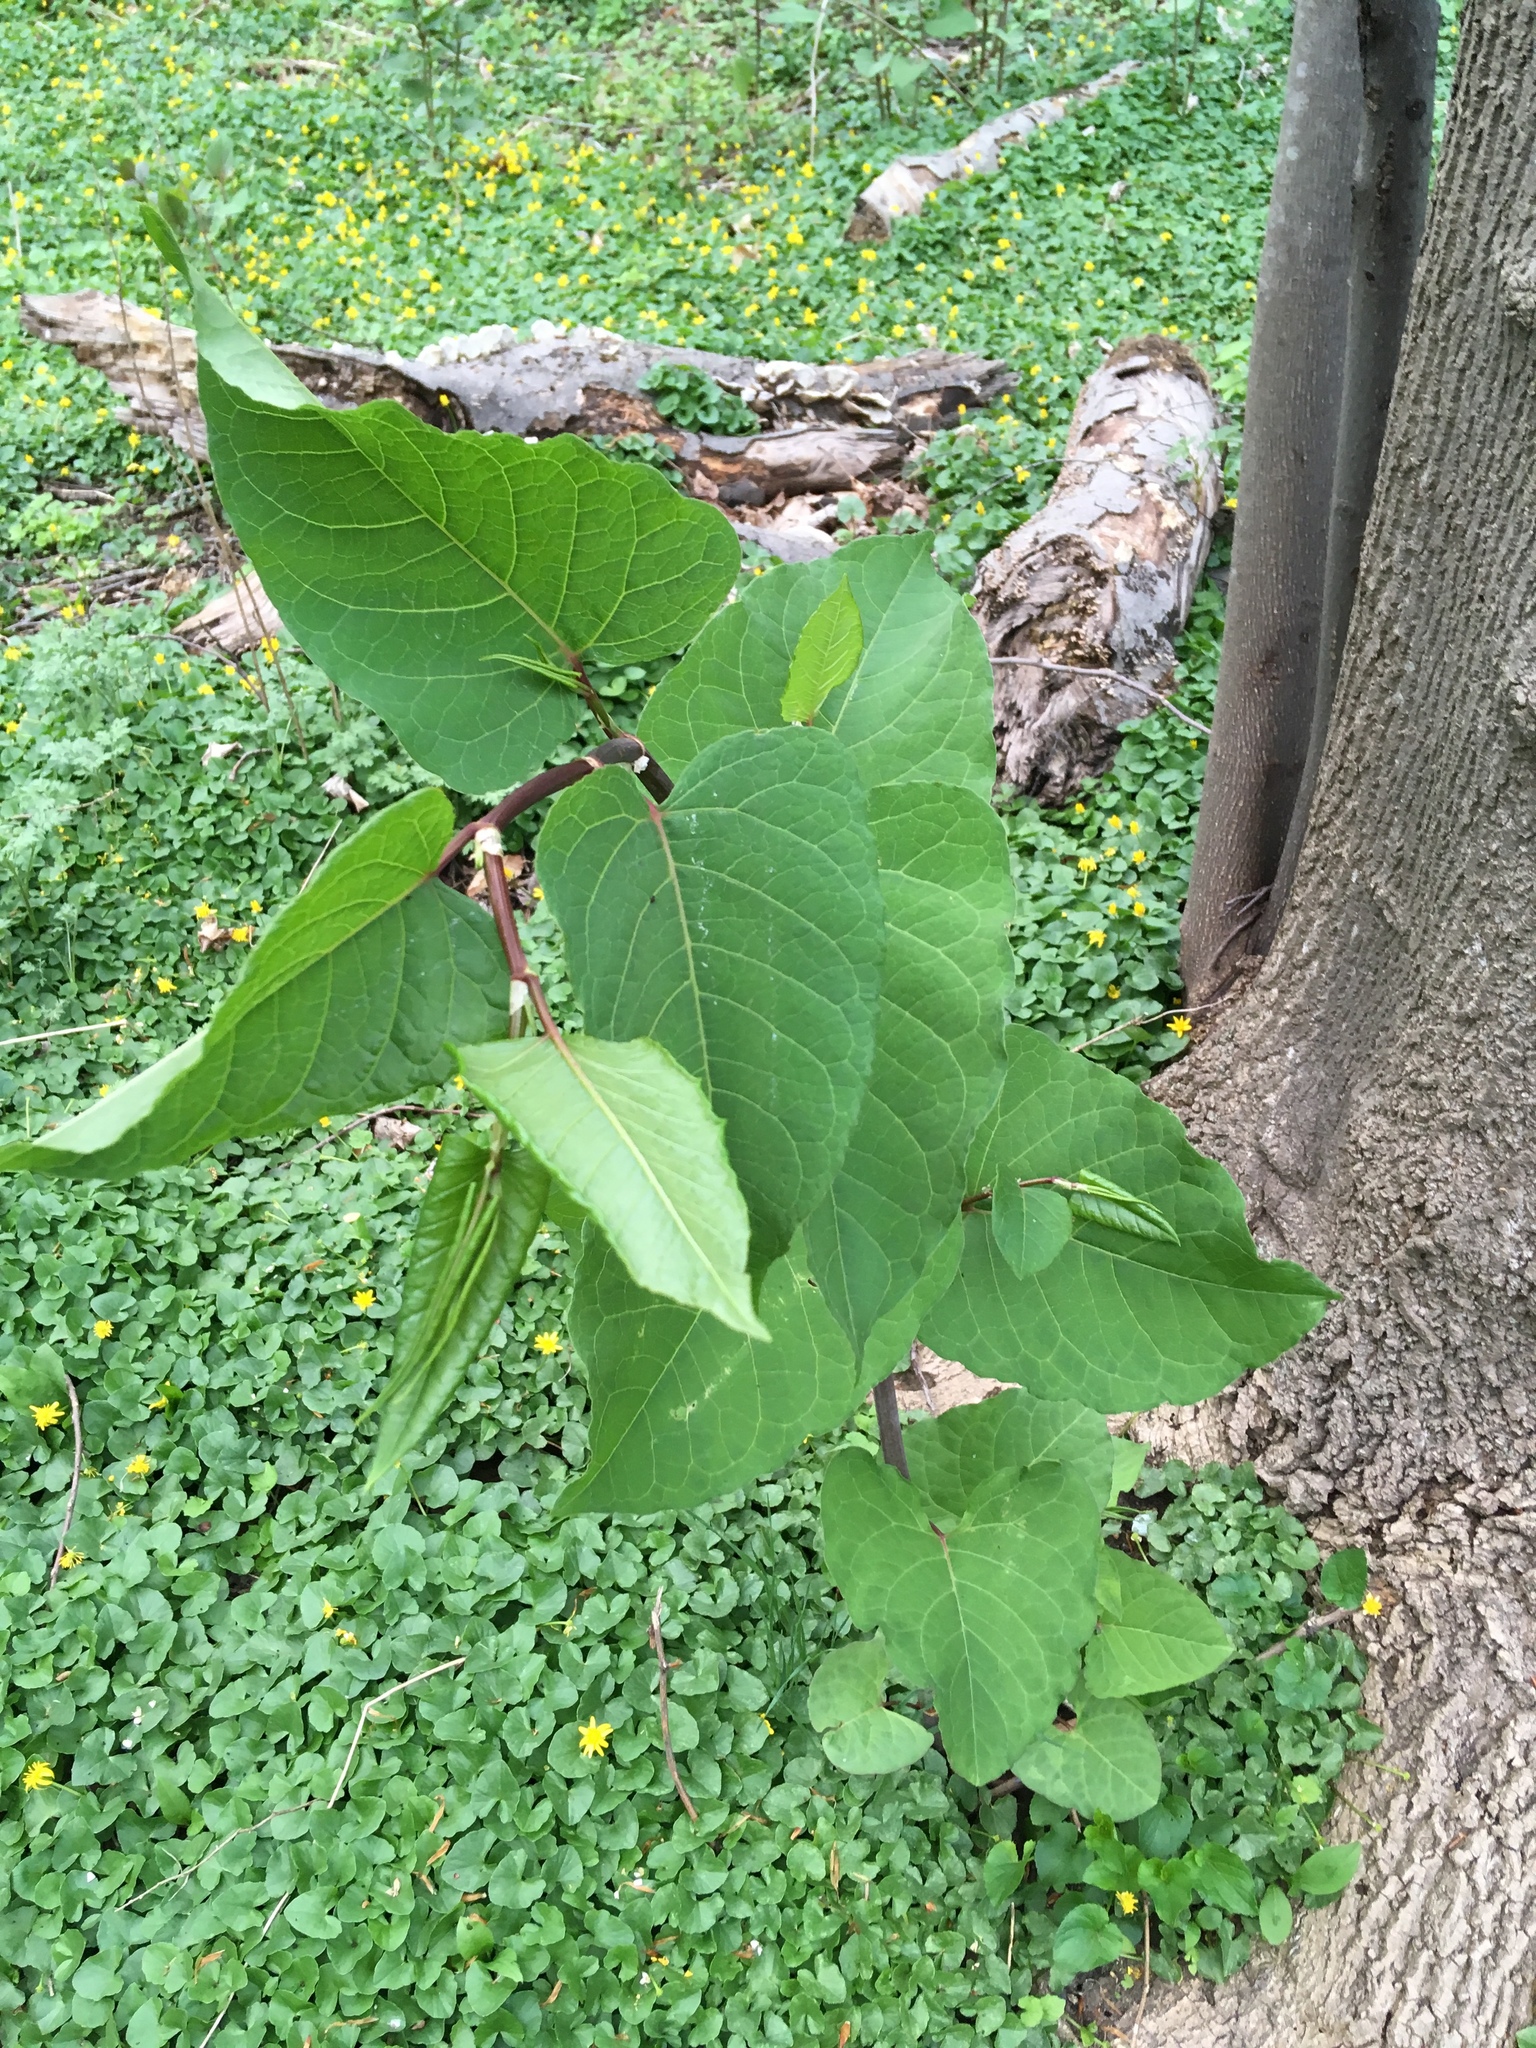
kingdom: Plantae
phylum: Tracheophyta
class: Magnoliopsida
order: Caryophyllales
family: Polygonaceae
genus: Reynoutria
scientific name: Reynoutria sachalinensis
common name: Giant knotweed
